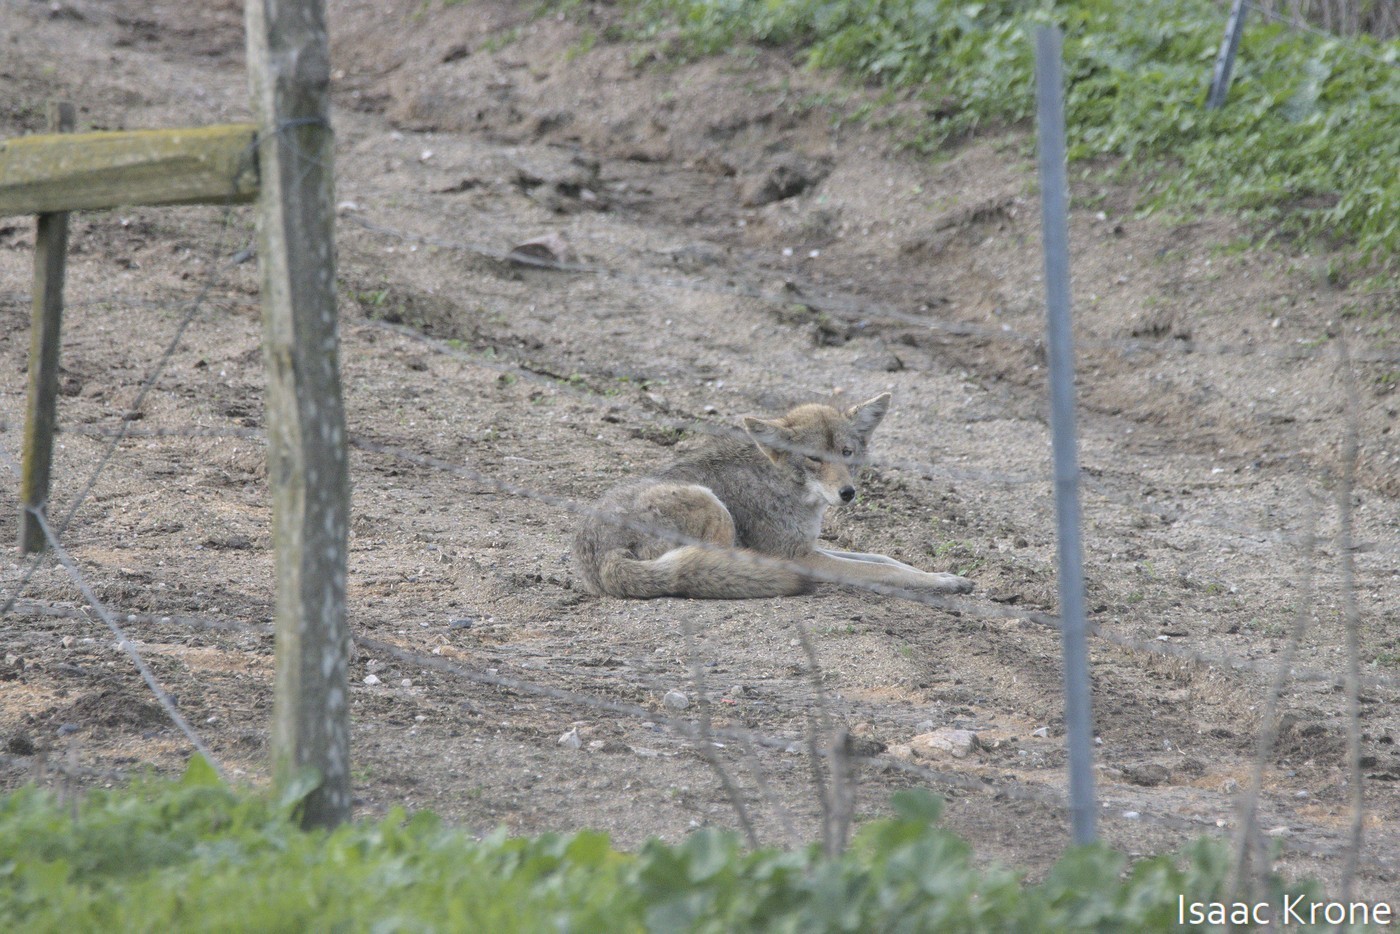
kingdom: Animalia
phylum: Chordata
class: Mammalia
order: Carnivora
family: Canidae
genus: Canis
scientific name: Canis latrans
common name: Coyote
